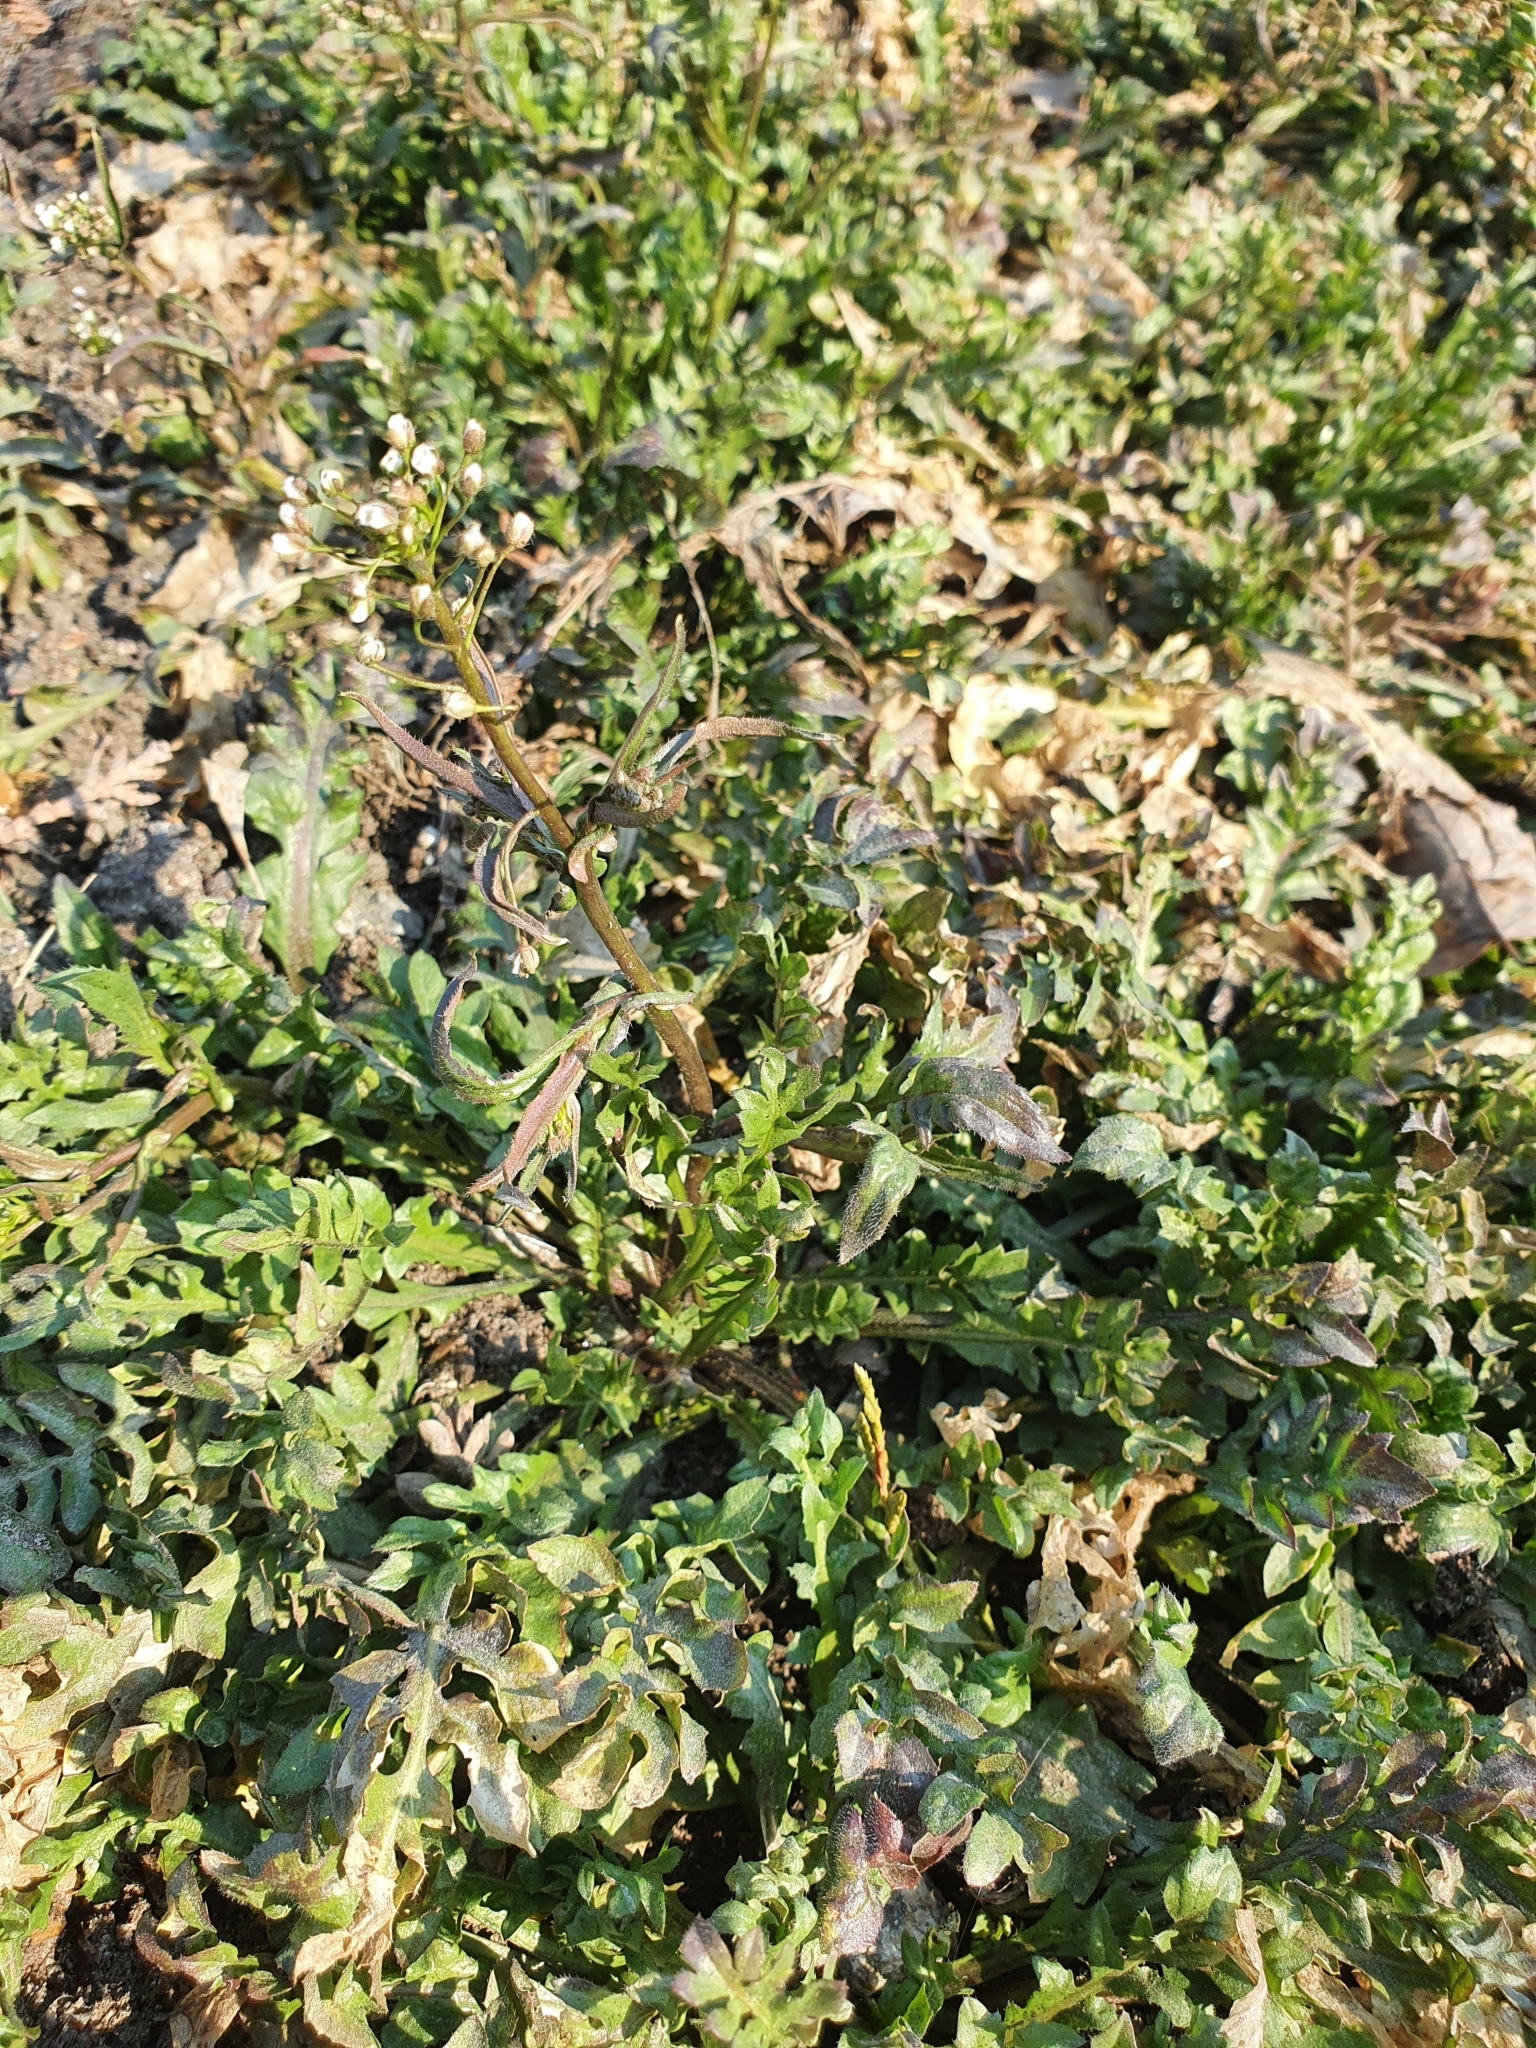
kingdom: Plantae
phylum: Tracheophyta
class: Magnoliopsida
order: Brassicales
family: Brassicaceae
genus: Capsella
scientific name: Capsella bursa-pastoris
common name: Shepherd's purse
